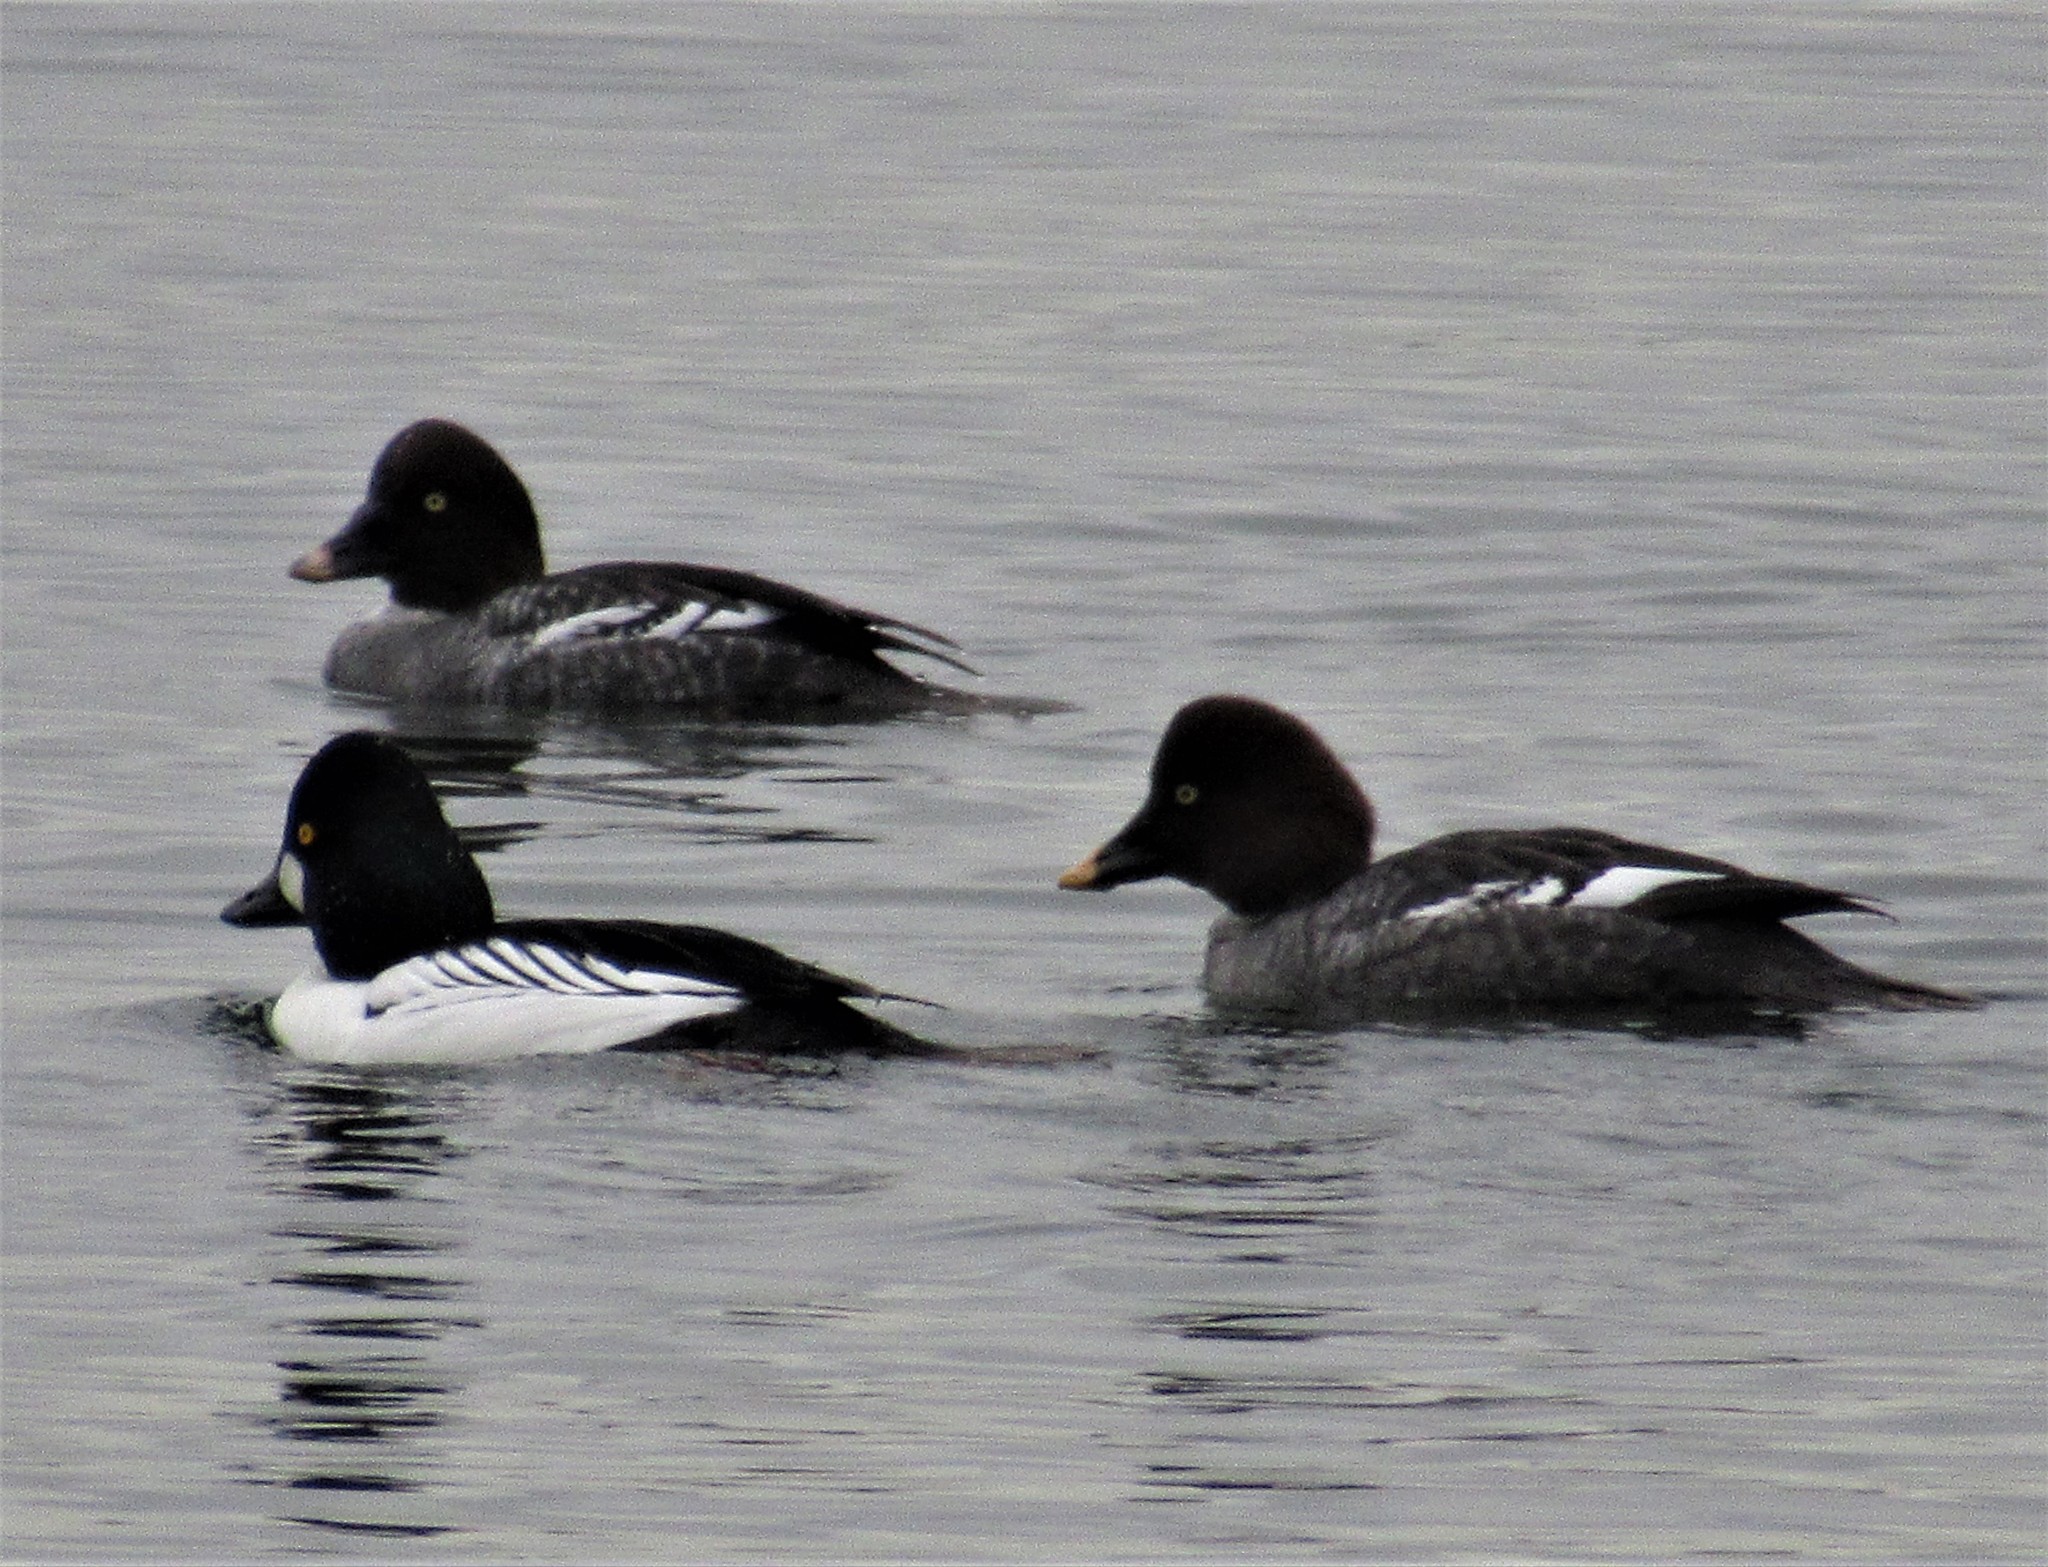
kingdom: Animalia
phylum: Chordata
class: Aves
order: Anseriformes
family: Anatidae
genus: Bucephala
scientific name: Bucephala clangula
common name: Common goldeneye
